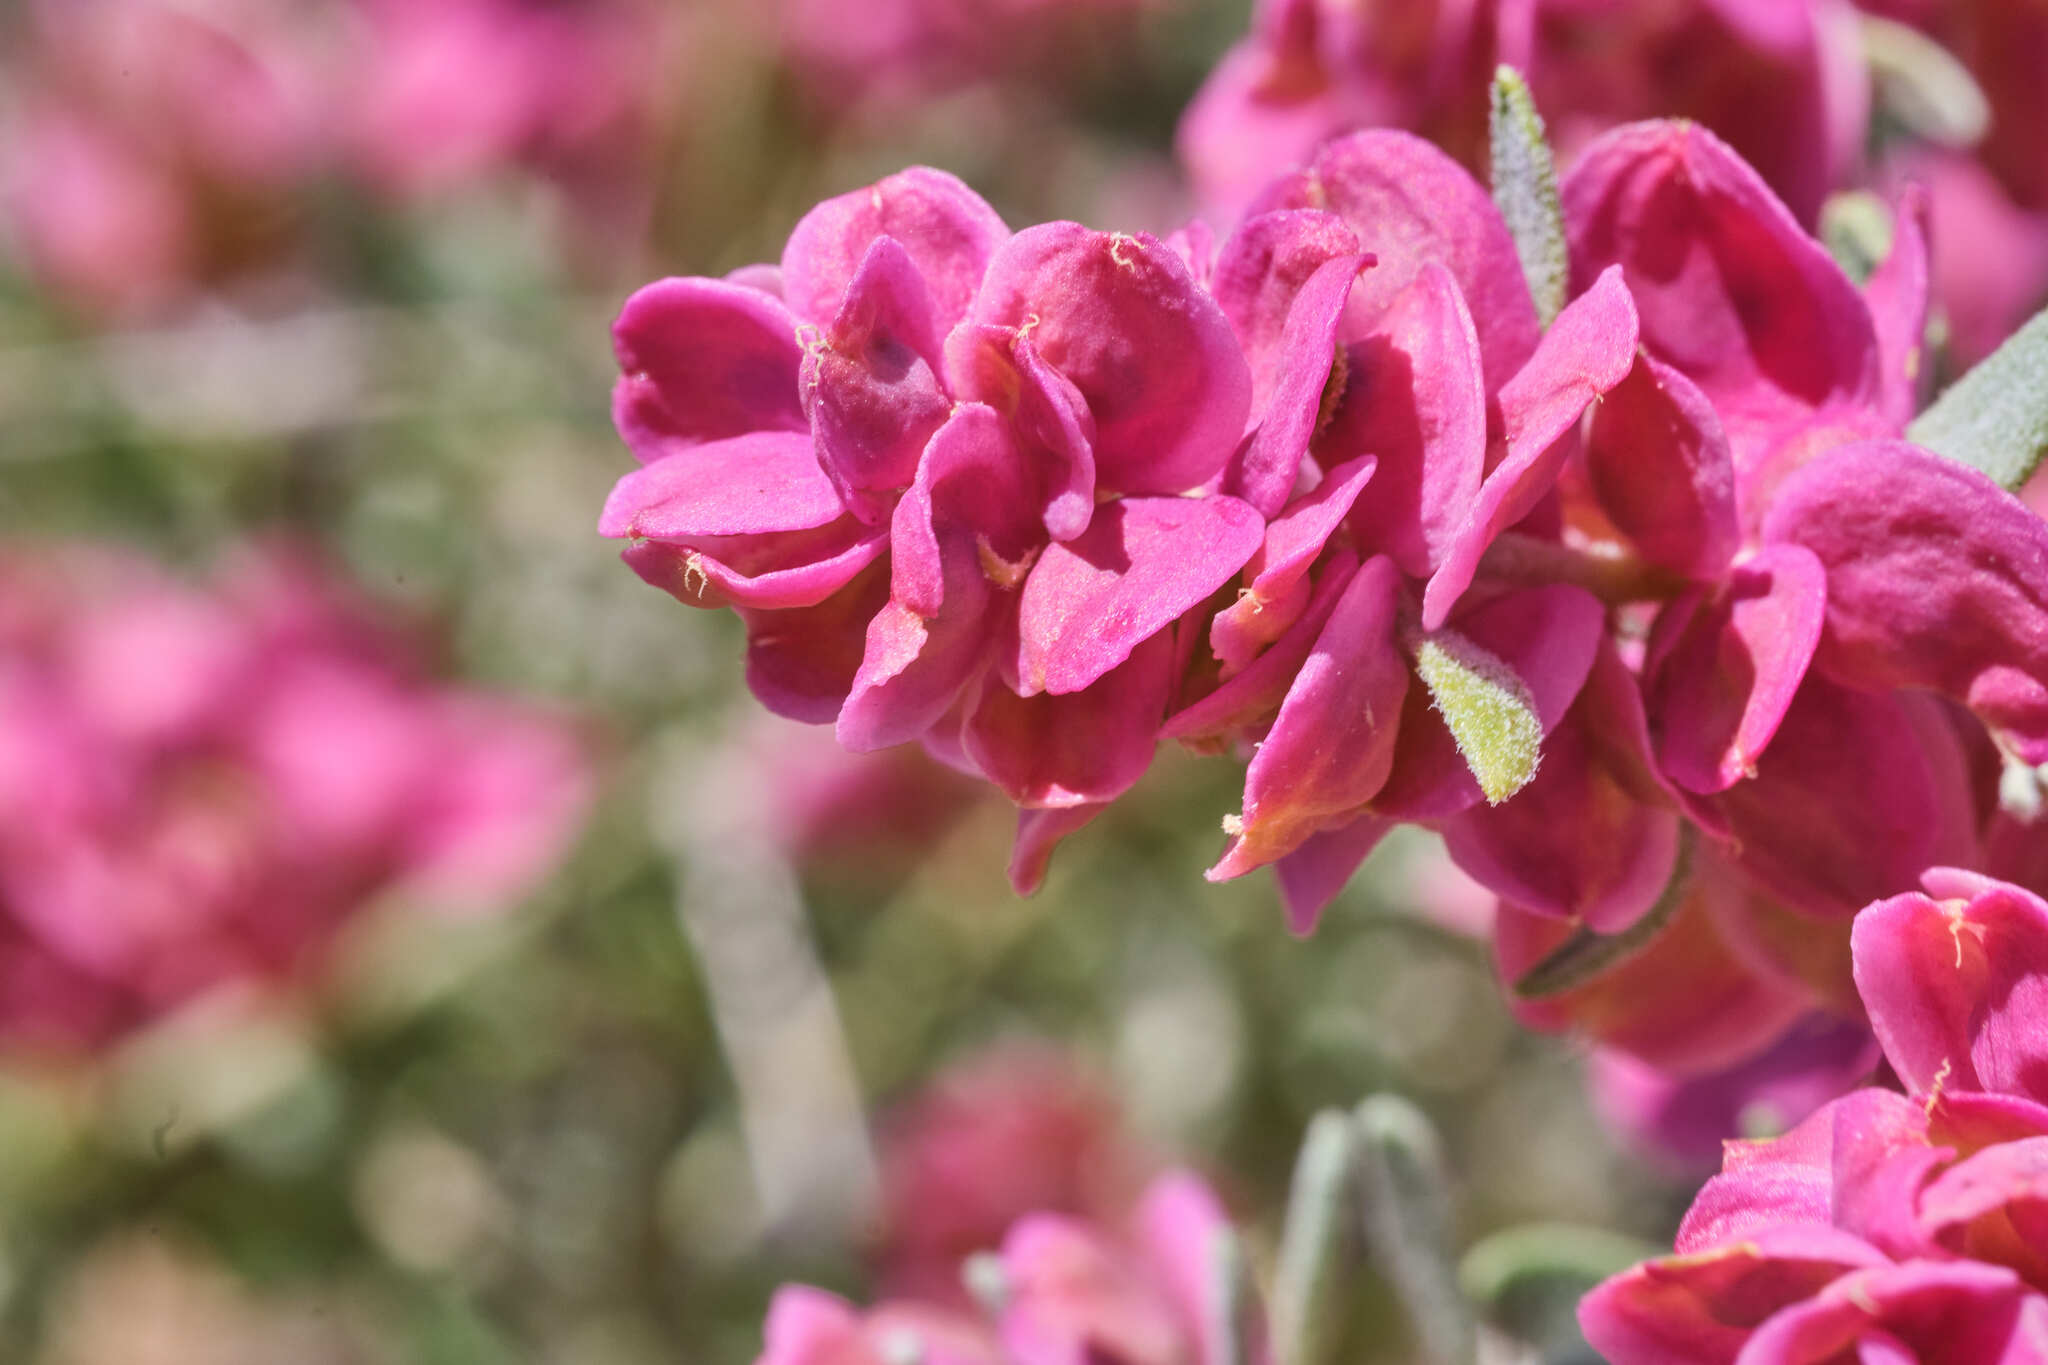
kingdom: Plantae
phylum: Tracheophyta
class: Magnoliopsida
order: Caryophyllales
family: Amaranthaceae
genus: Grayia
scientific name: Grayia spinosa
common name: Spiny hopsage
